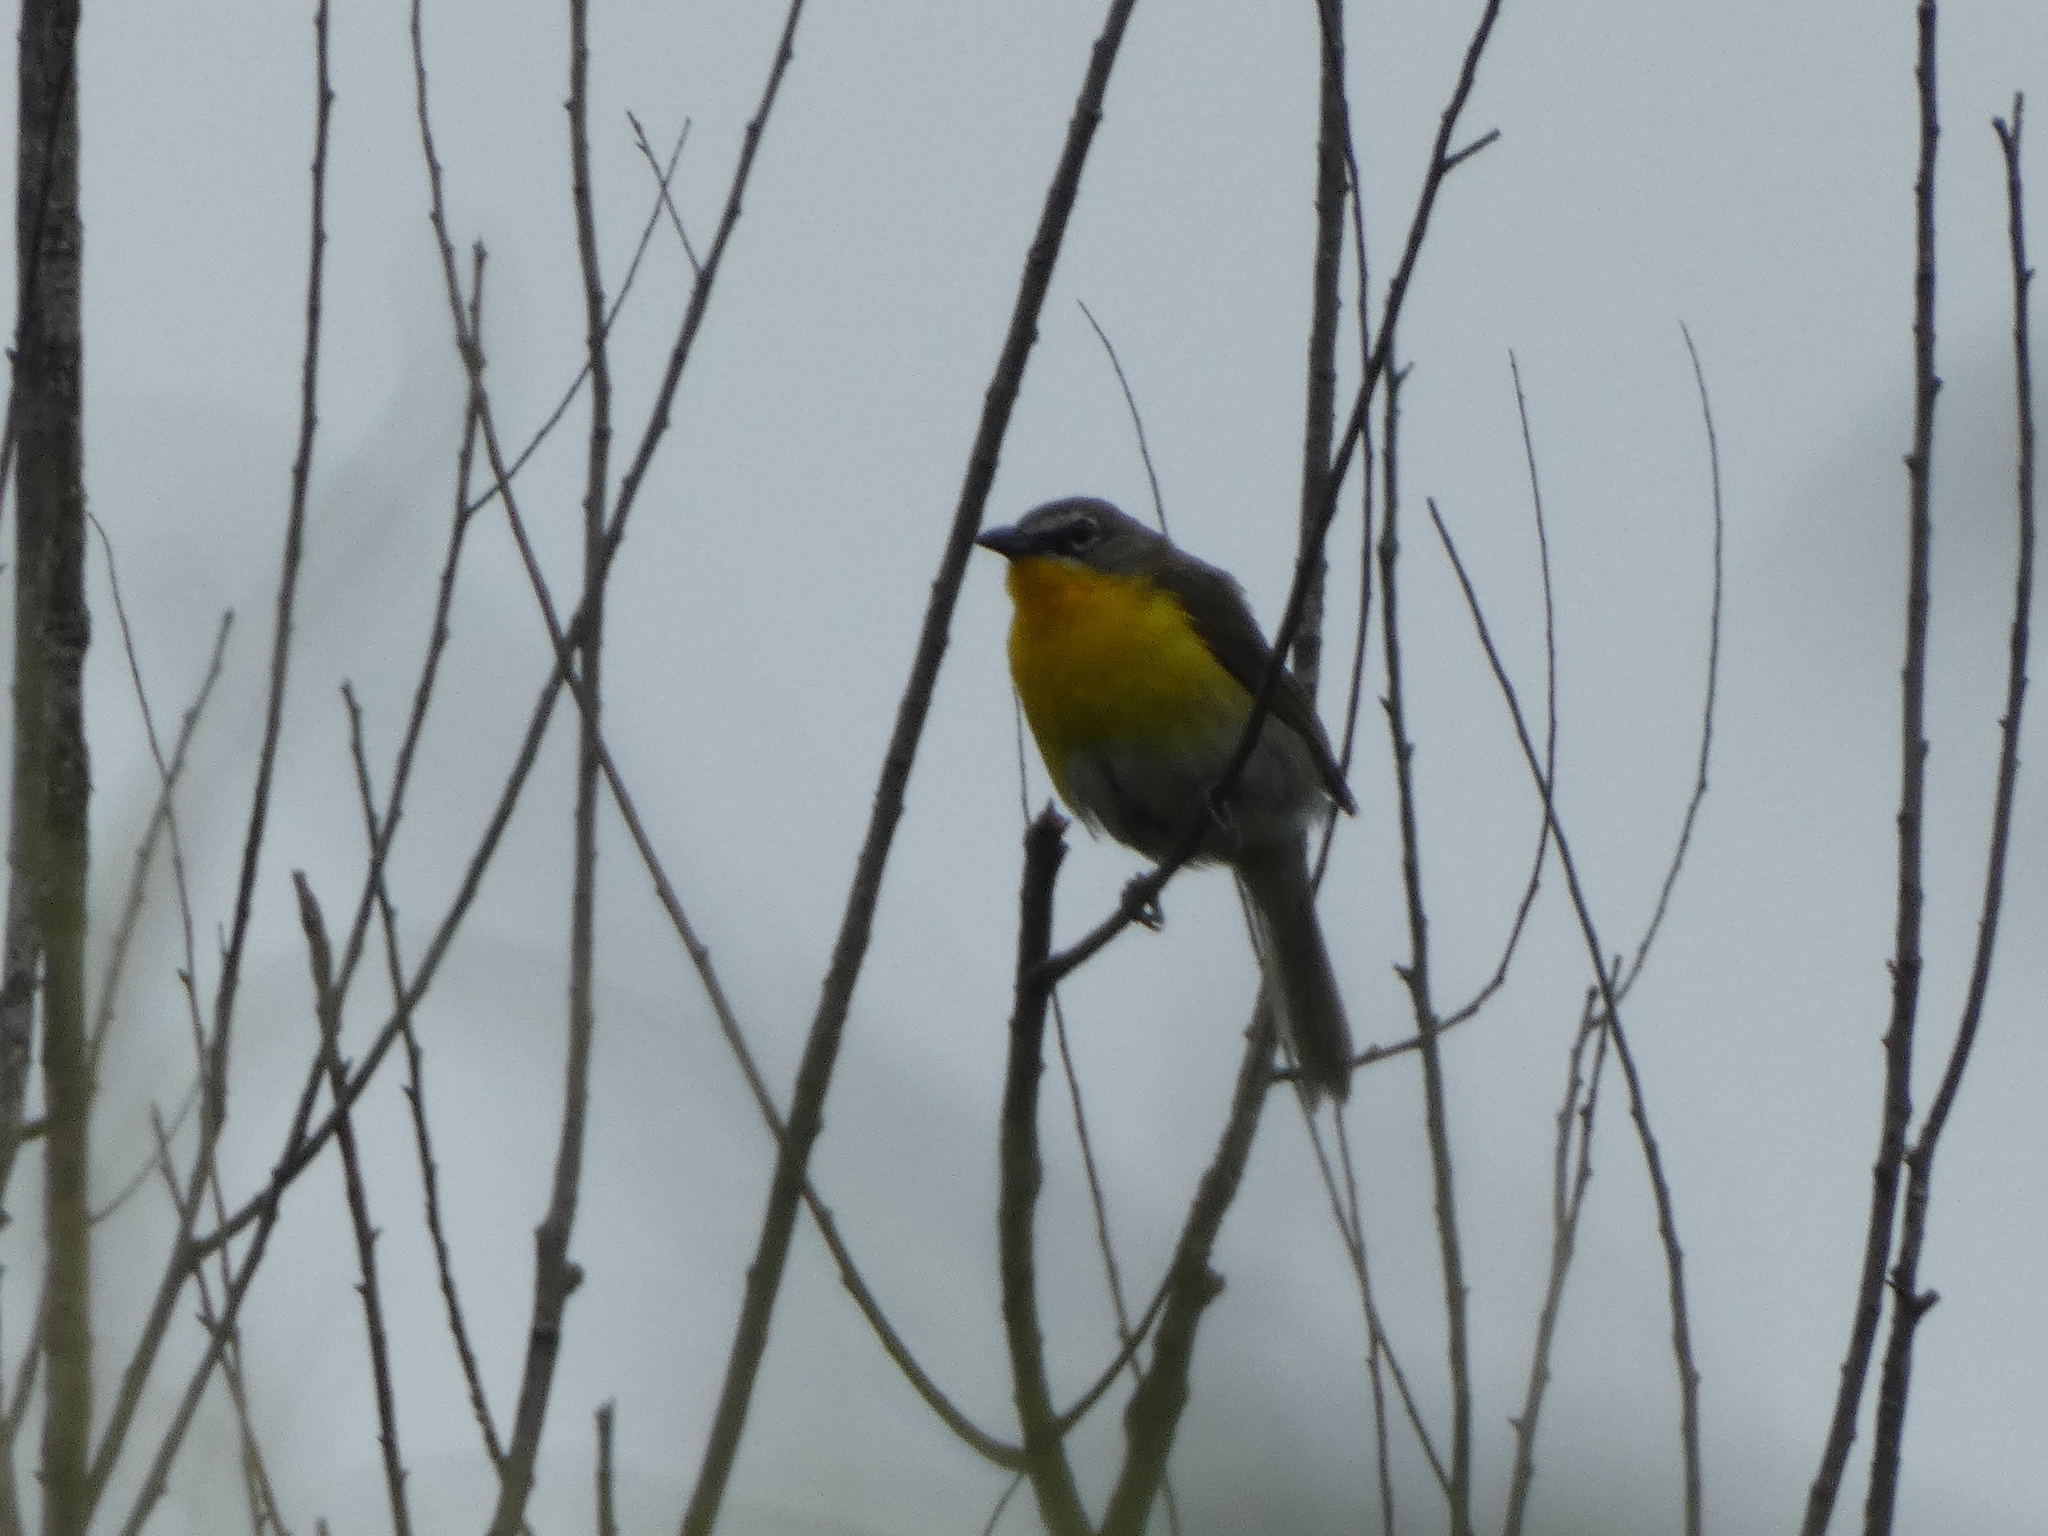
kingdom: Animalia
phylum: Chordata
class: Aves
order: Passeriformes
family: Parulidae
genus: Icteria
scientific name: Icteria virens
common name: Yellow-breasted chat
